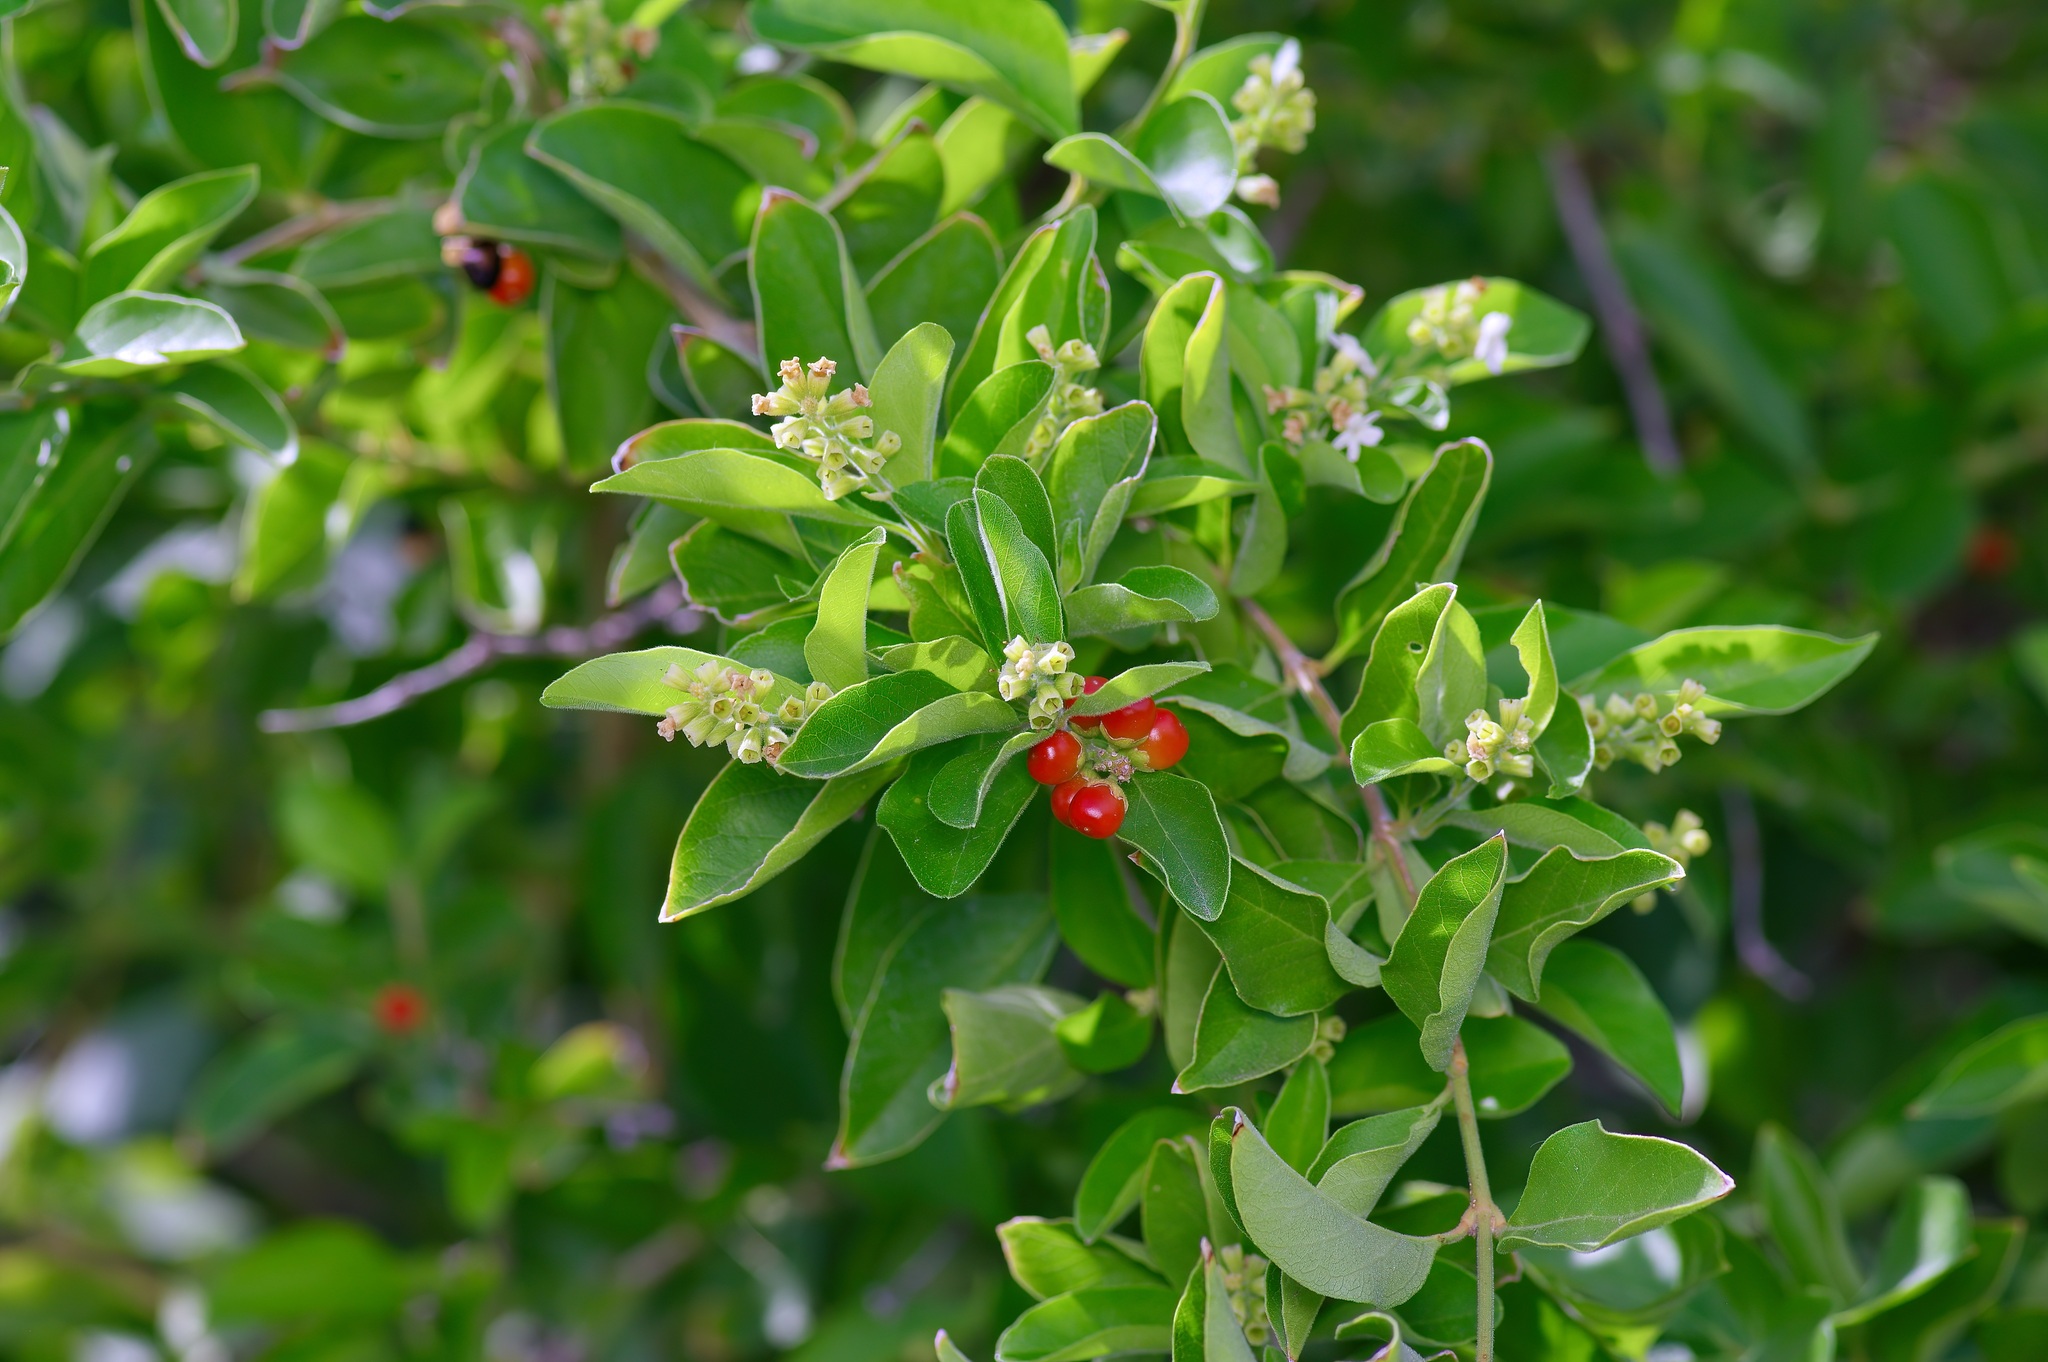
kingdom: Plantae
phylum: Tracheophyta
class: Magnoliopsida
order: Lamiales
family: Verbenaceae
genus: Citharexylum
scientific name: Citharexylum berlandieri
